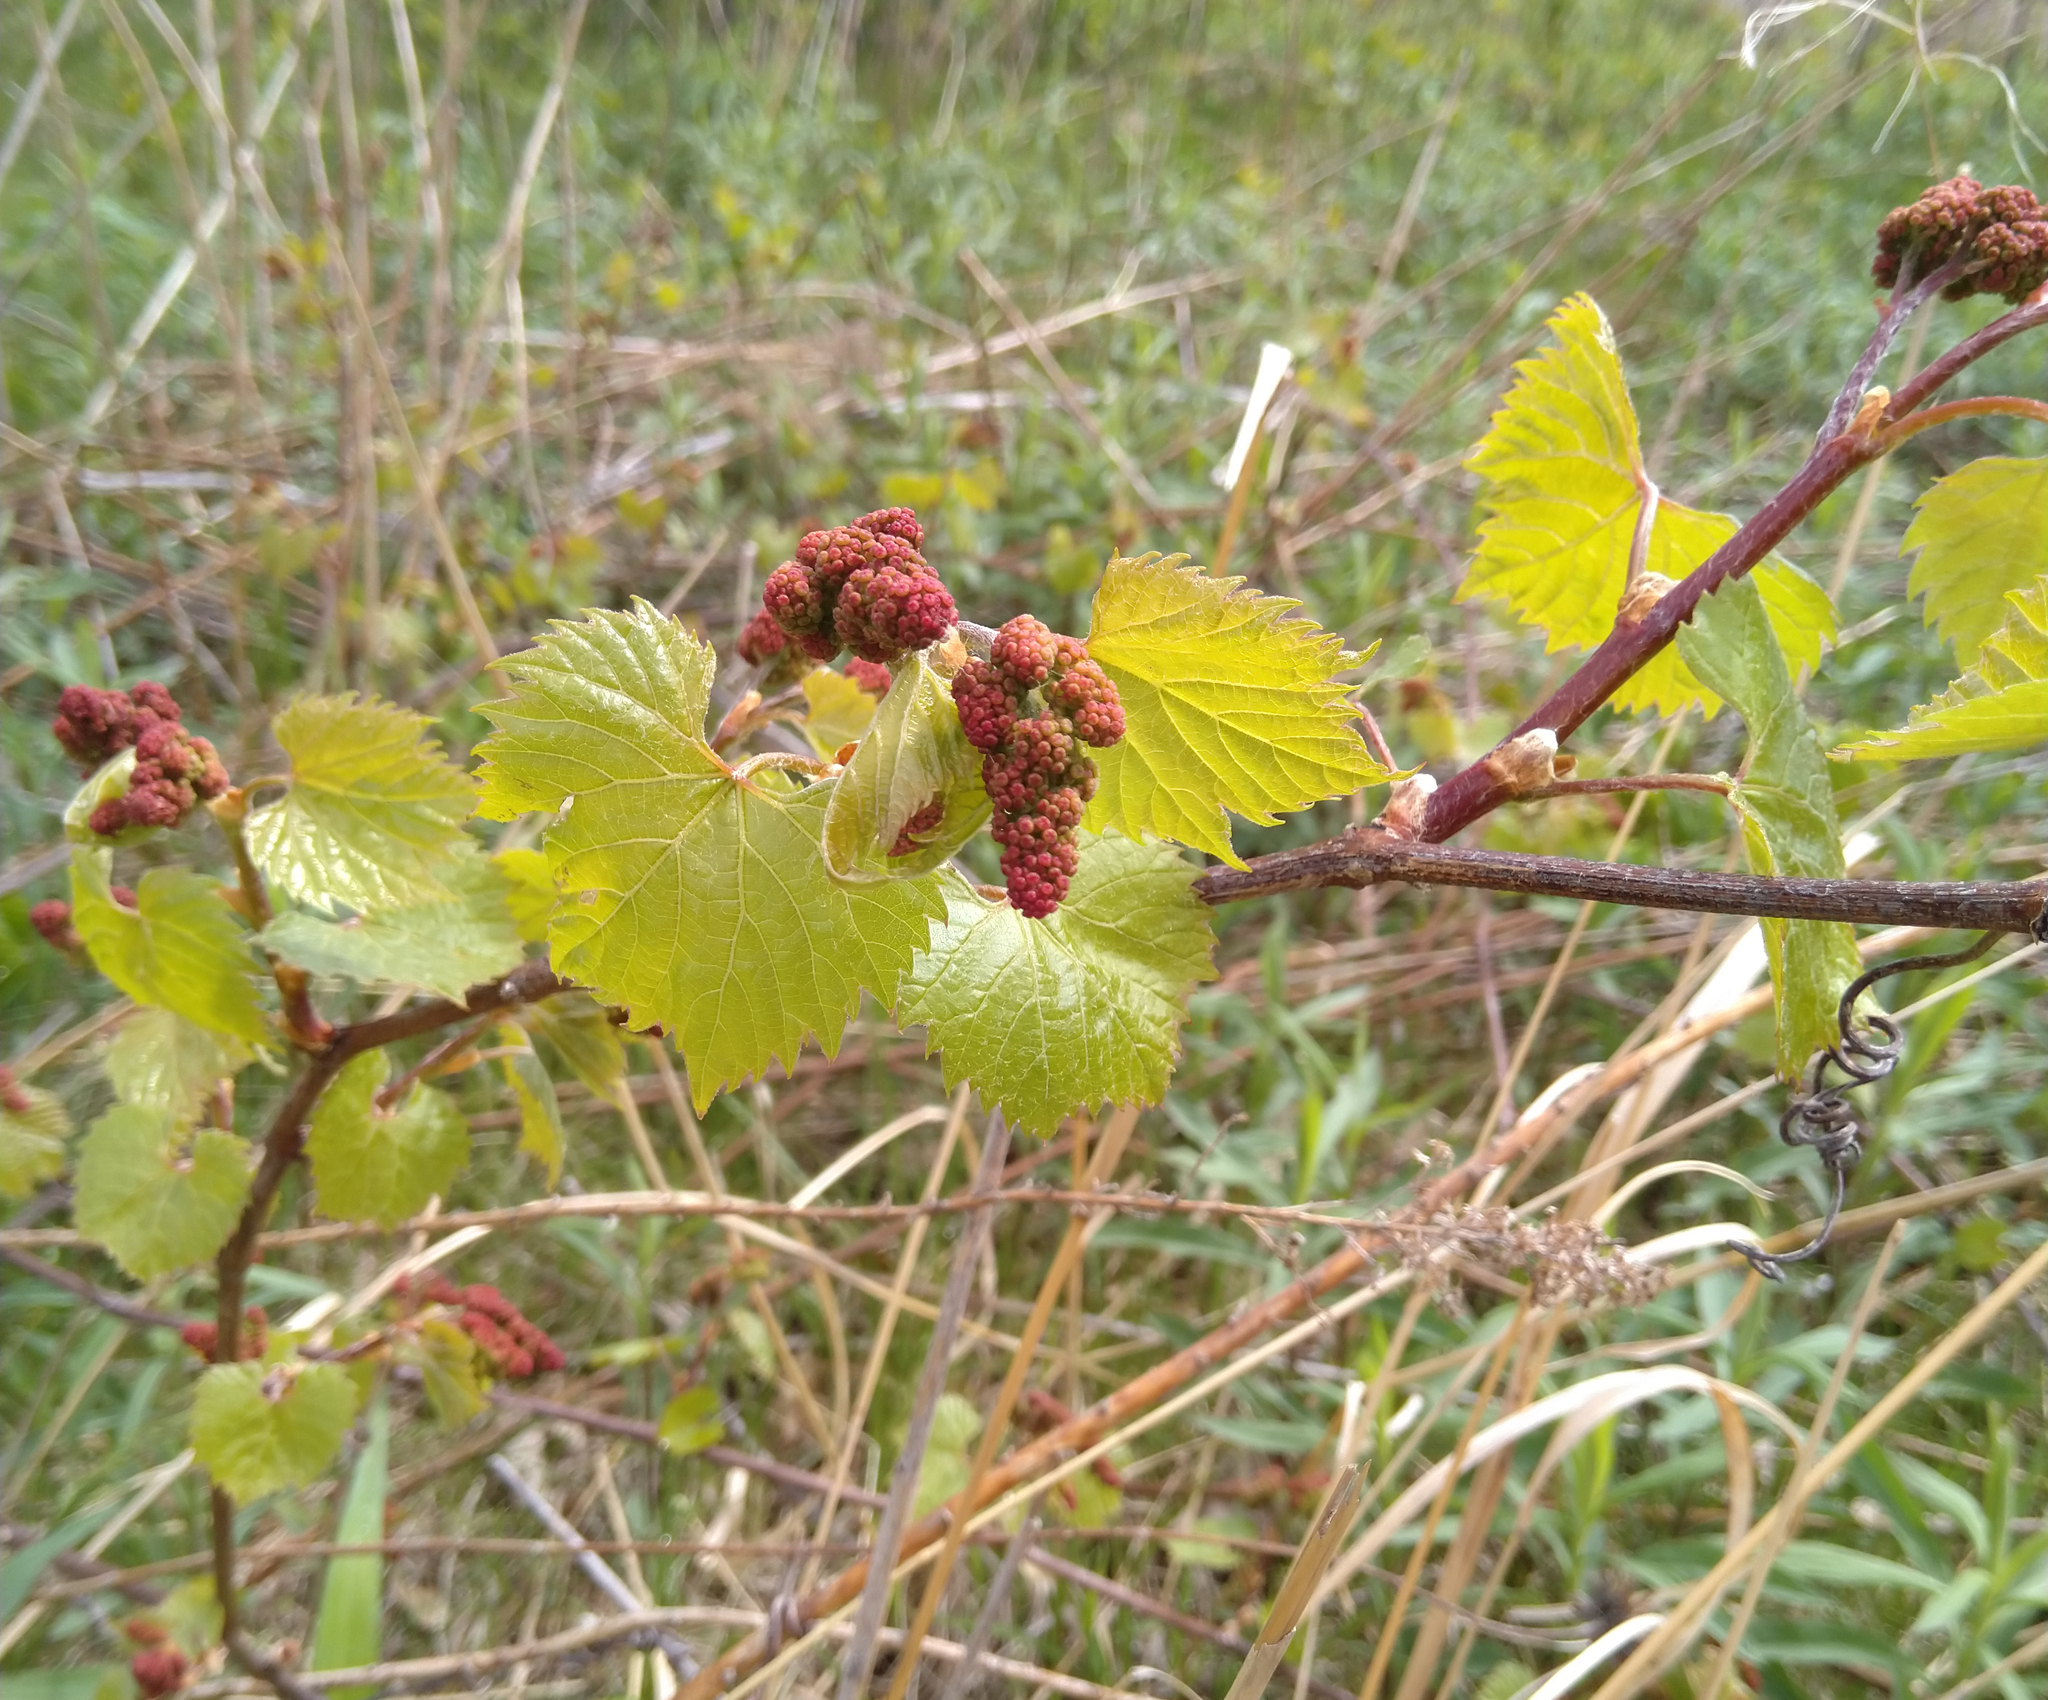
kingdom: Plantae
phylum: Tracheophyta
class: Magnoliopsida
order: Vitales
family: Vitaceae
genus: Vitis
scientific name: Vitis riparia
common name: Frost grape
